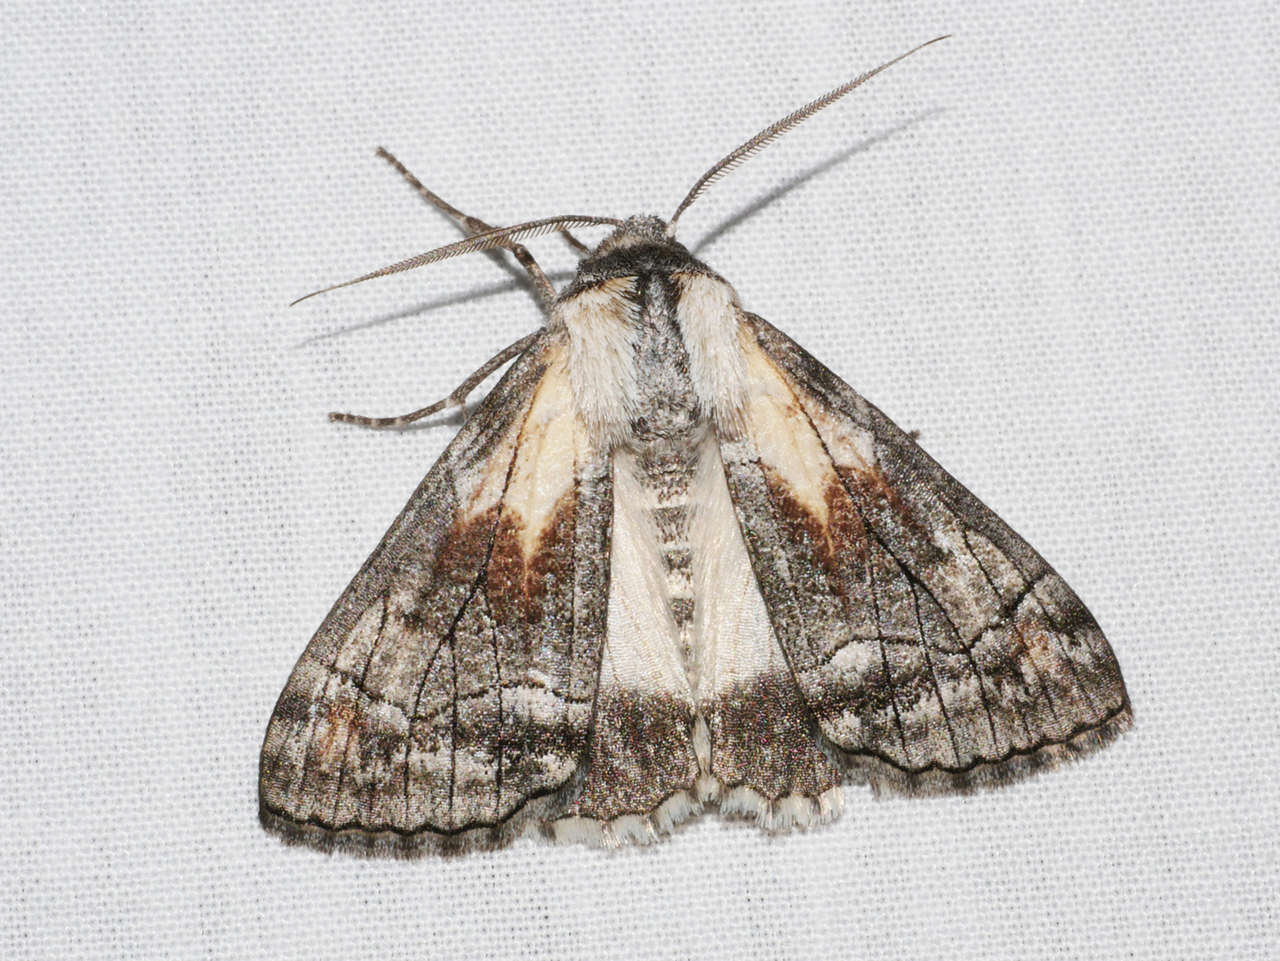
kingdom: Animalia
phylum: Arthropoda
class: Insecta
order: Lepidoptera
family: Geometridae
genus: Stibaractis
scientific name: Stibaractis melanotoxa
